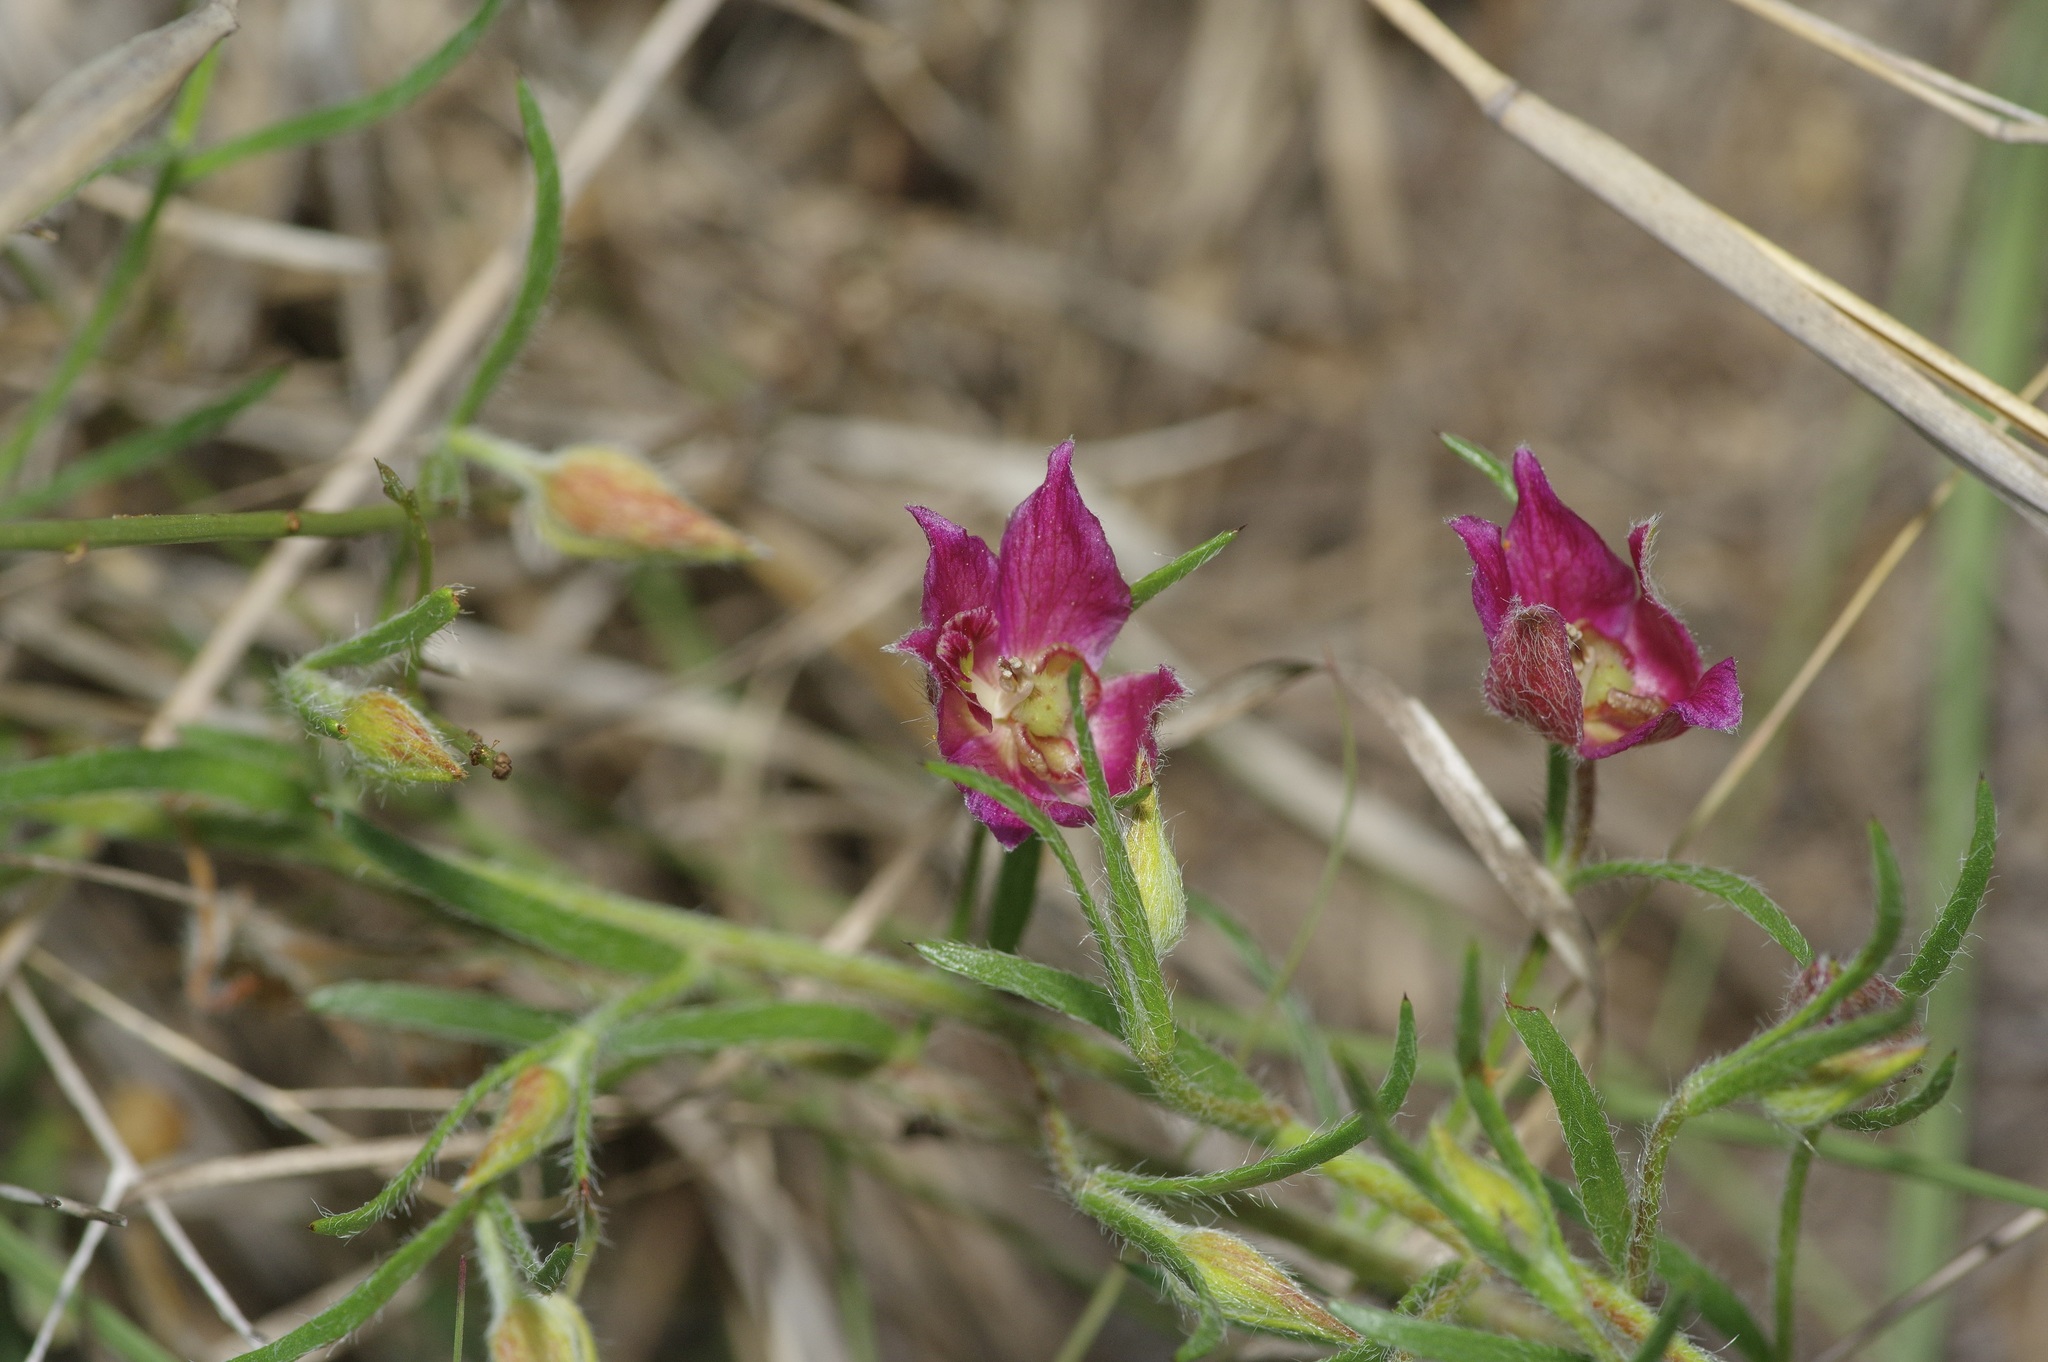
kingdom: Plantae
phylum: Tracheophyta
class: Magnoliopsida
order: Zygophyllales
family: Krameriaceae
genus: Krameria
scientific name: Krameria lanceolata
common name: Ratany
